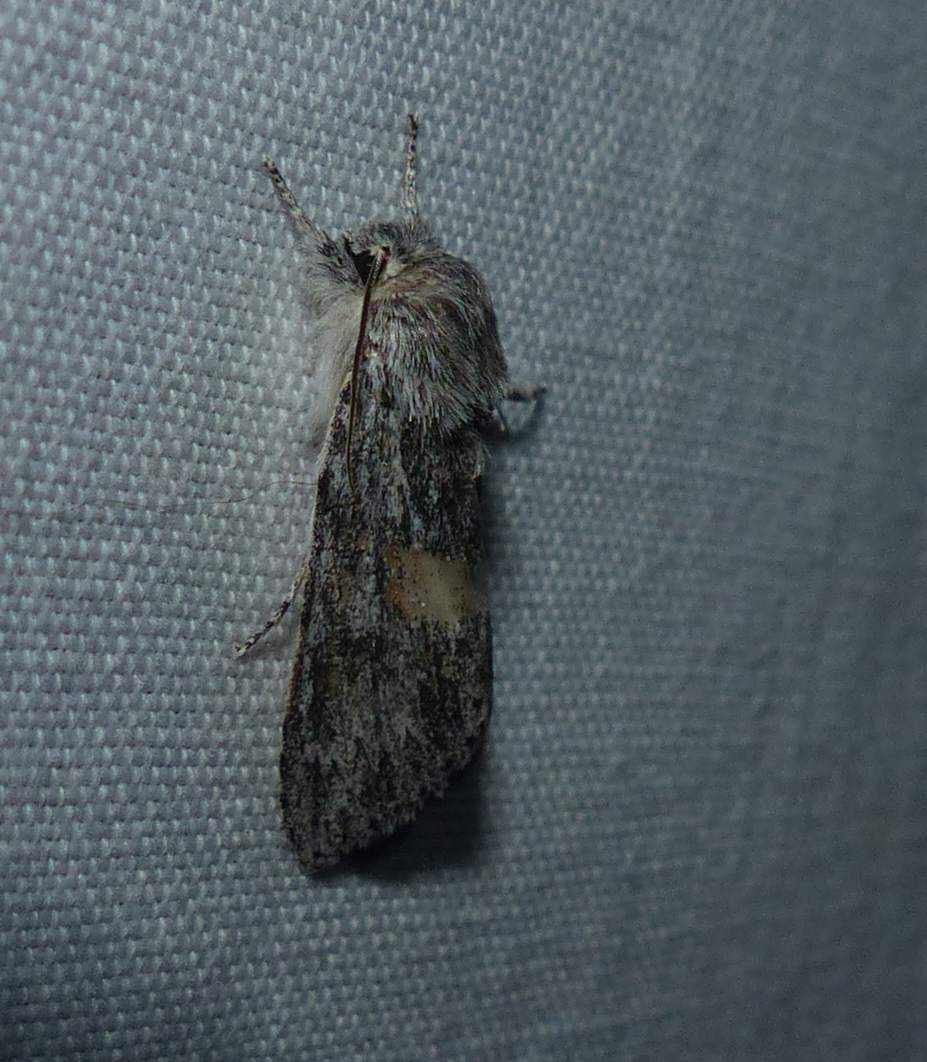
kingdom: Animalia
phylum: Arthropoda
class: Insecta
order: Lepidoptera
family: Noctuidae
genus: Acronicta
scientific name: Acronicta oblinita
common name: Smeared dagger
